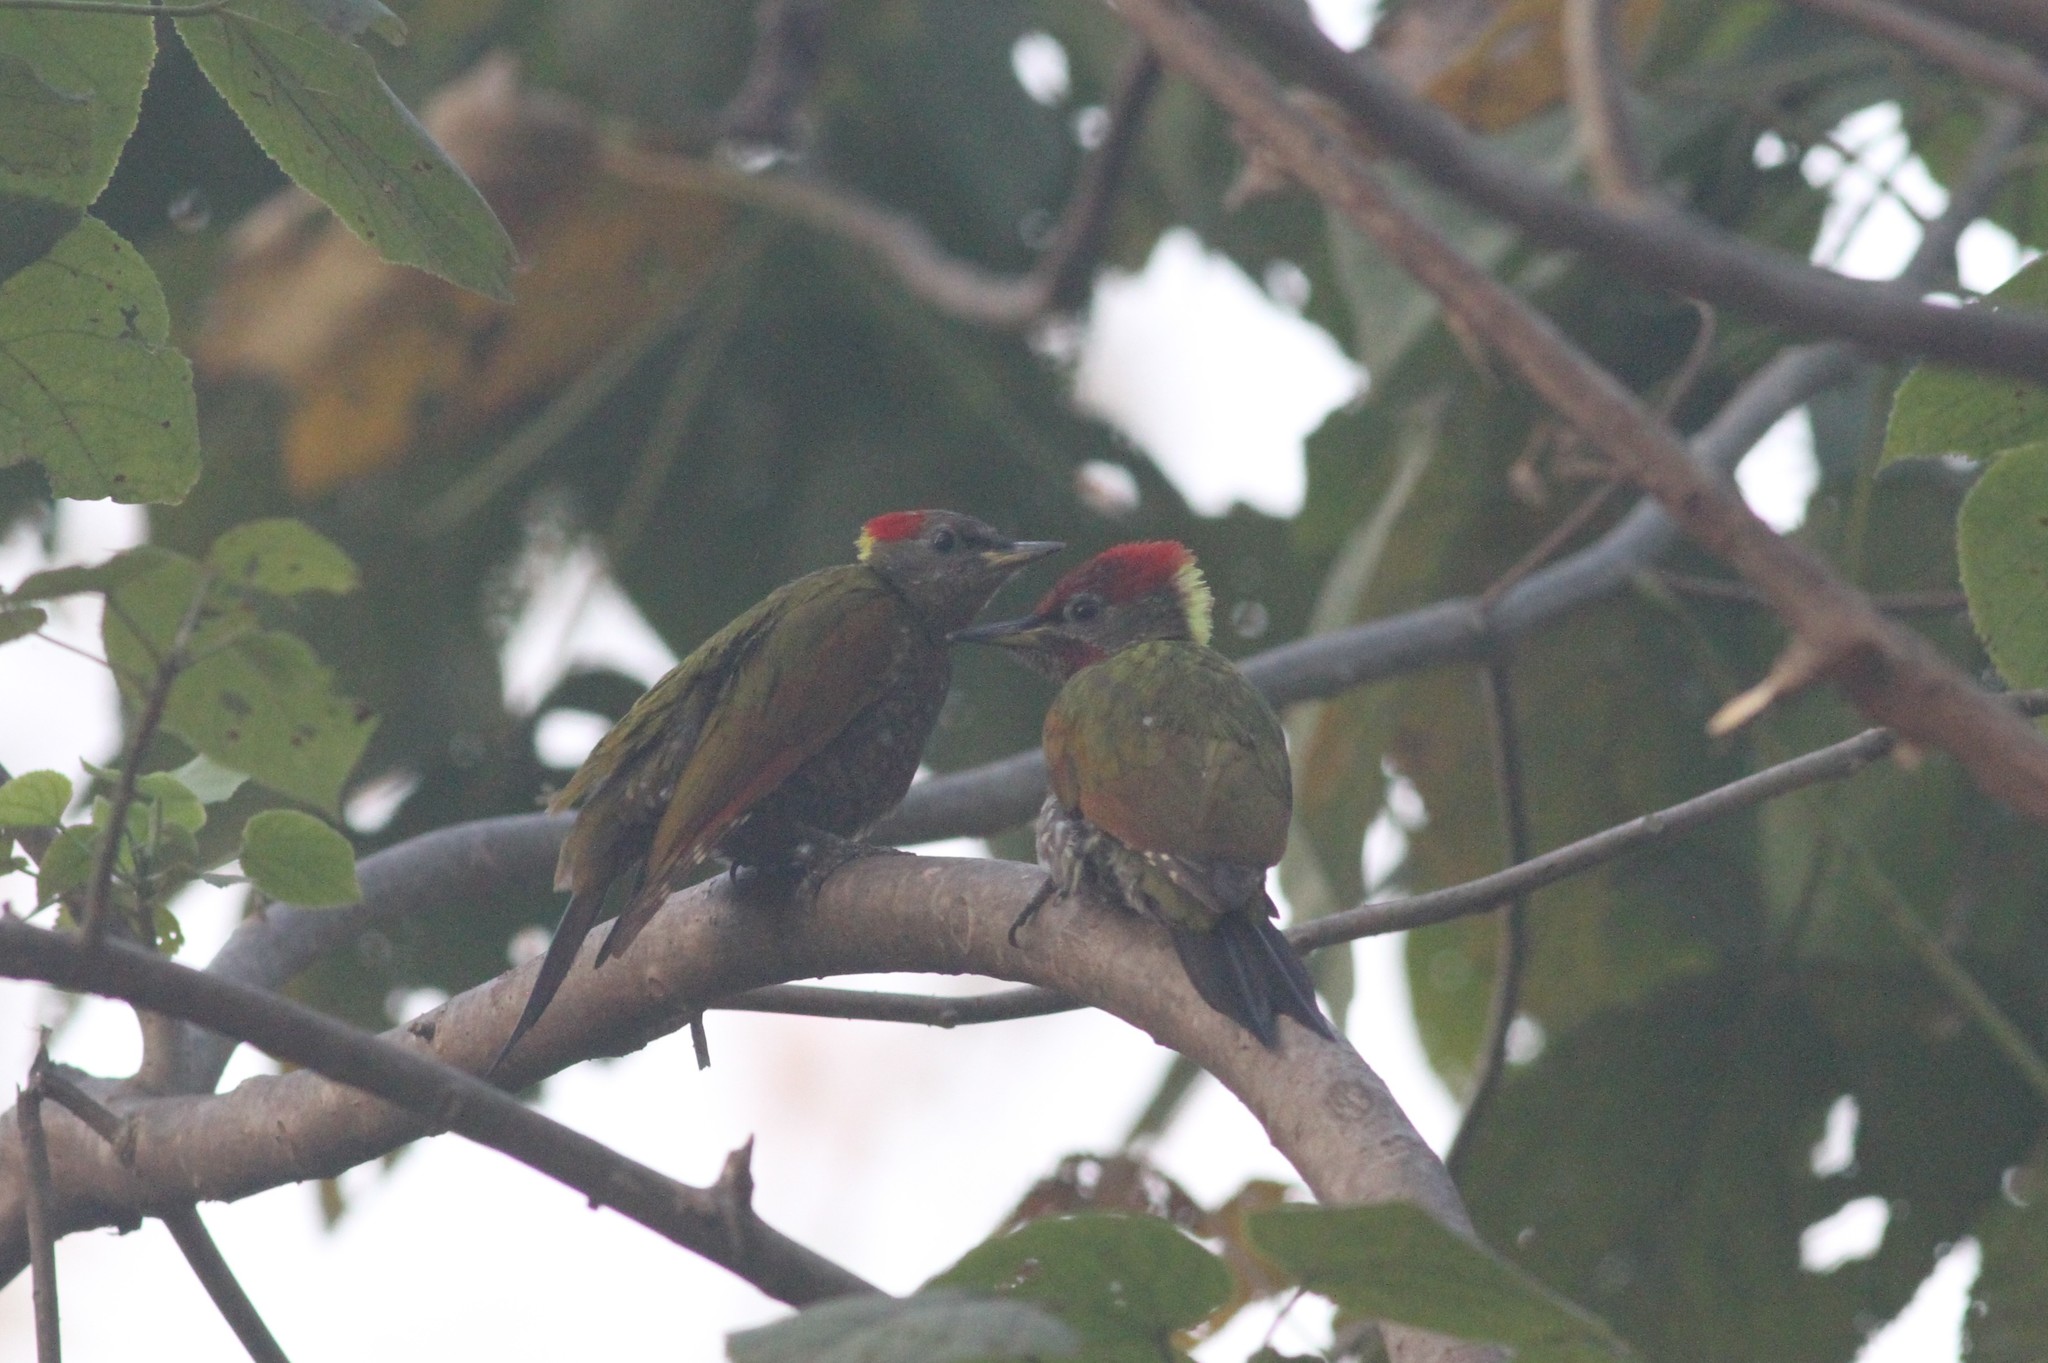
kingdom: Animalia
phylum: Chordata
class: Aves
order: Piciformes
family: Picidae
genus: Picus
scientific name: Picus chlorolophus
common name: Lesser yellownape
